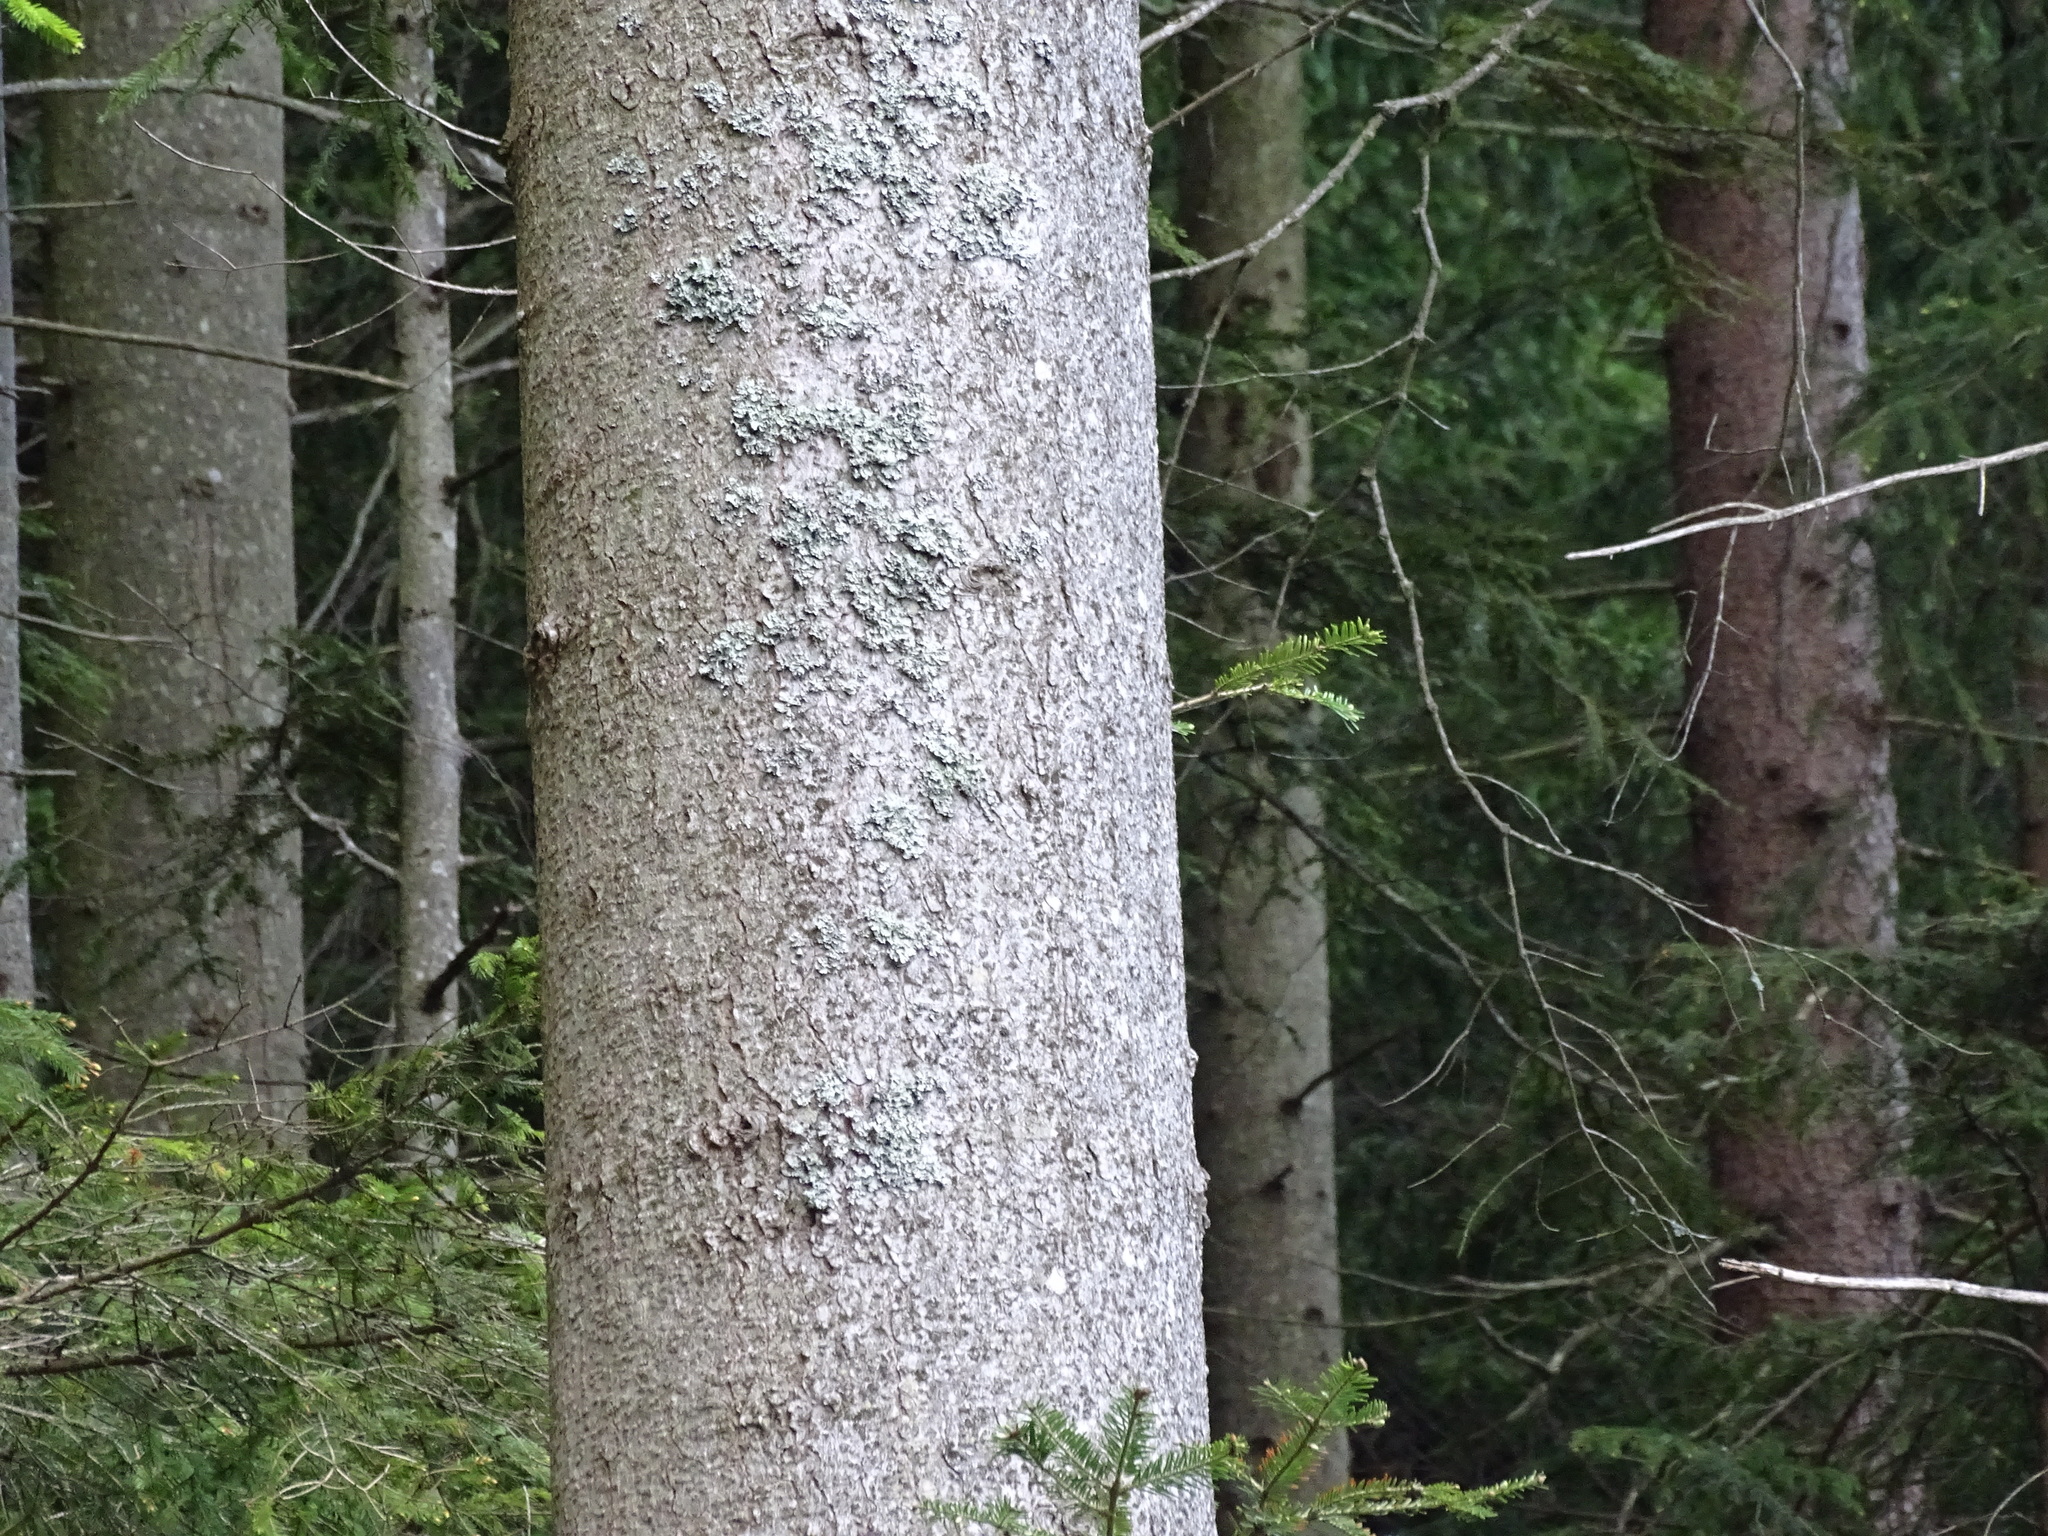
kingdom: Plantae
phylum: Tracheophyta
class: Pinopsida
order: Pinales
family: Pinaceae
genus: Abies
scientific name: Abies alba
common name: Silver fir
